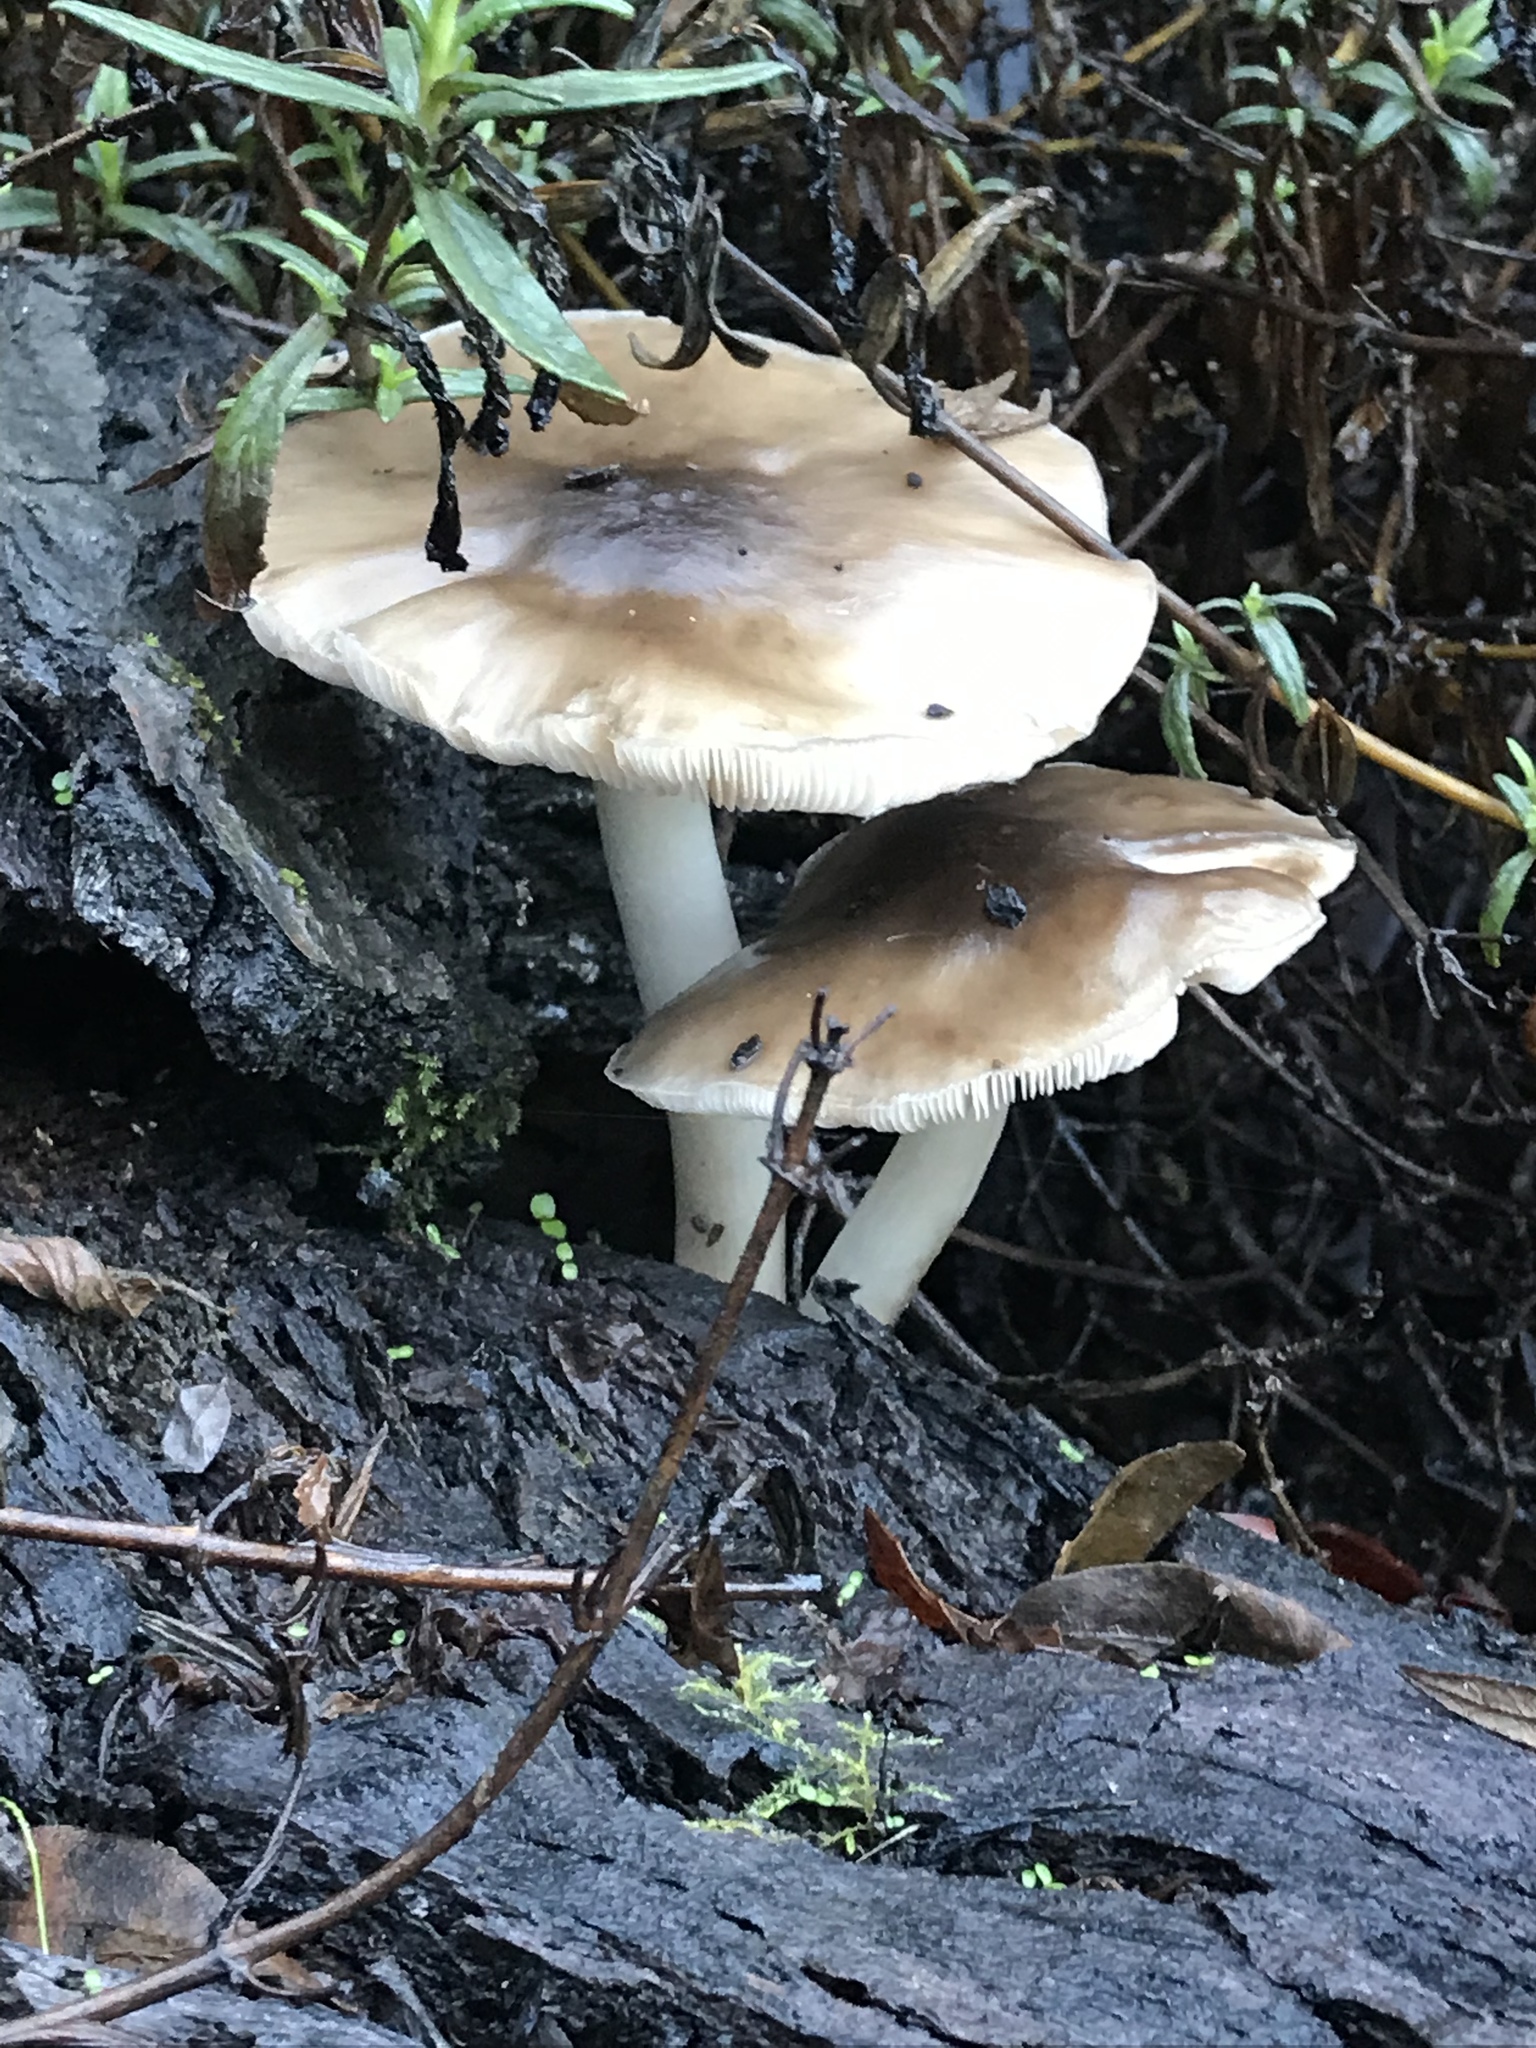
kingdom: Fungi
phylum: Basidiomycota
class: Agaricomycetes
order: Agaricales
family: Pluteaceae
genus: Pluteus
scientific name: Pluteus cervinus
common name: Deer shield
